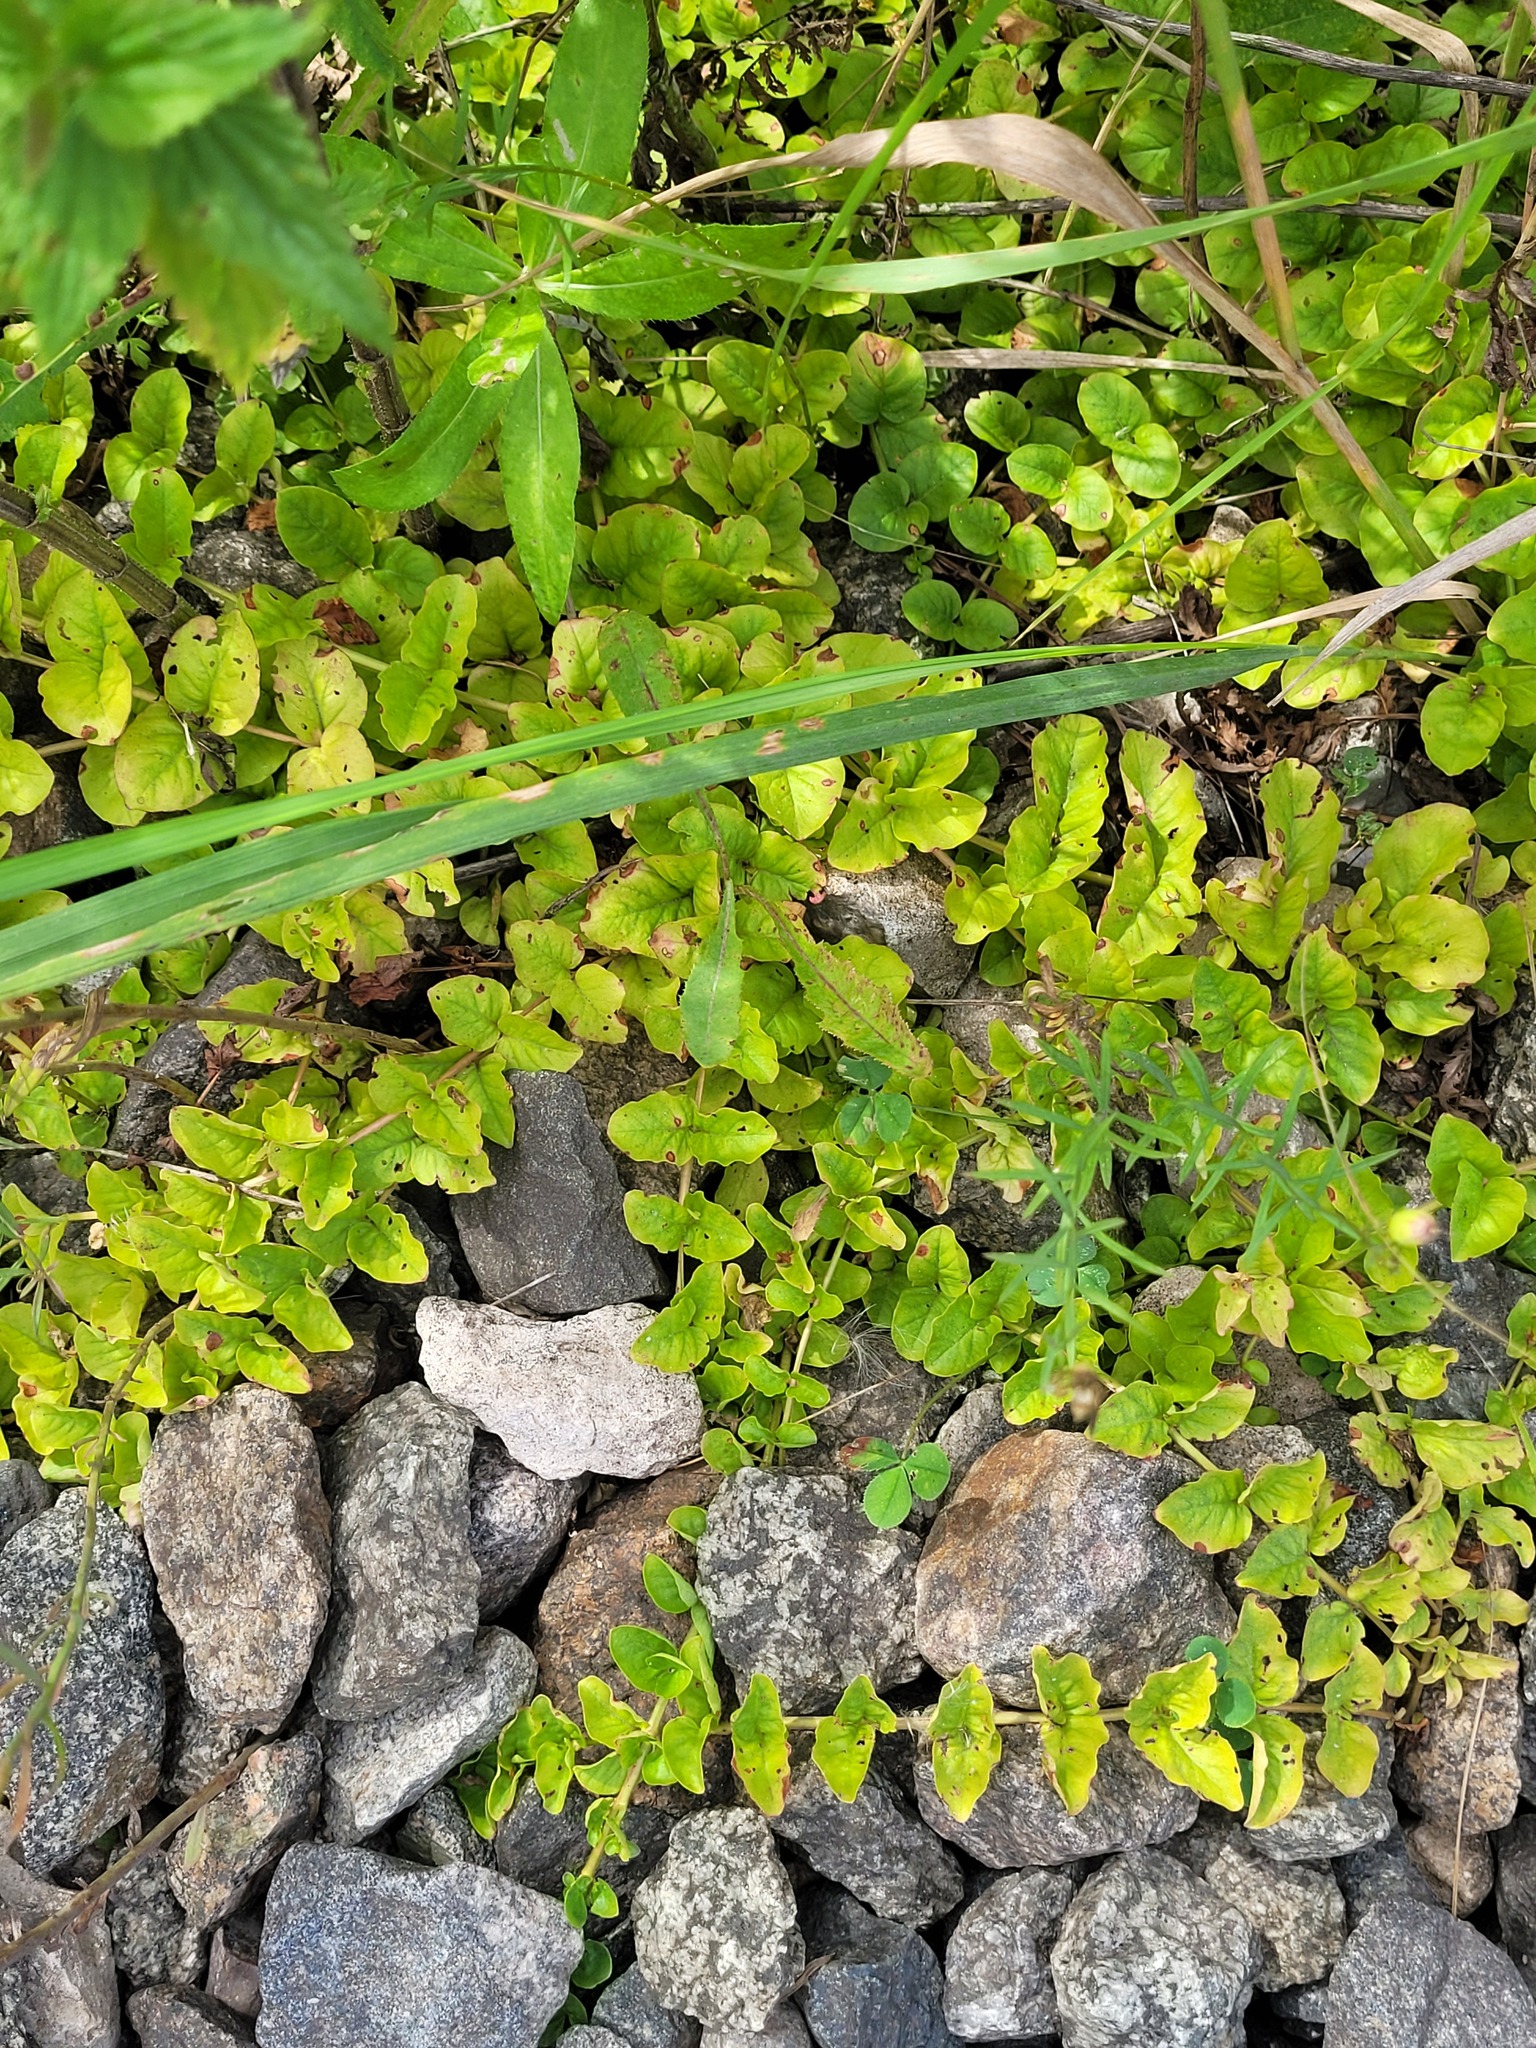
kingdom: Plantae
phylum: Tracheophyta
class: Magnoliopsida
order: Ericales
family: Primulaceae
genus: Lysimachia
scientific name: Lysimachia nummularia
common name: Moneywort
